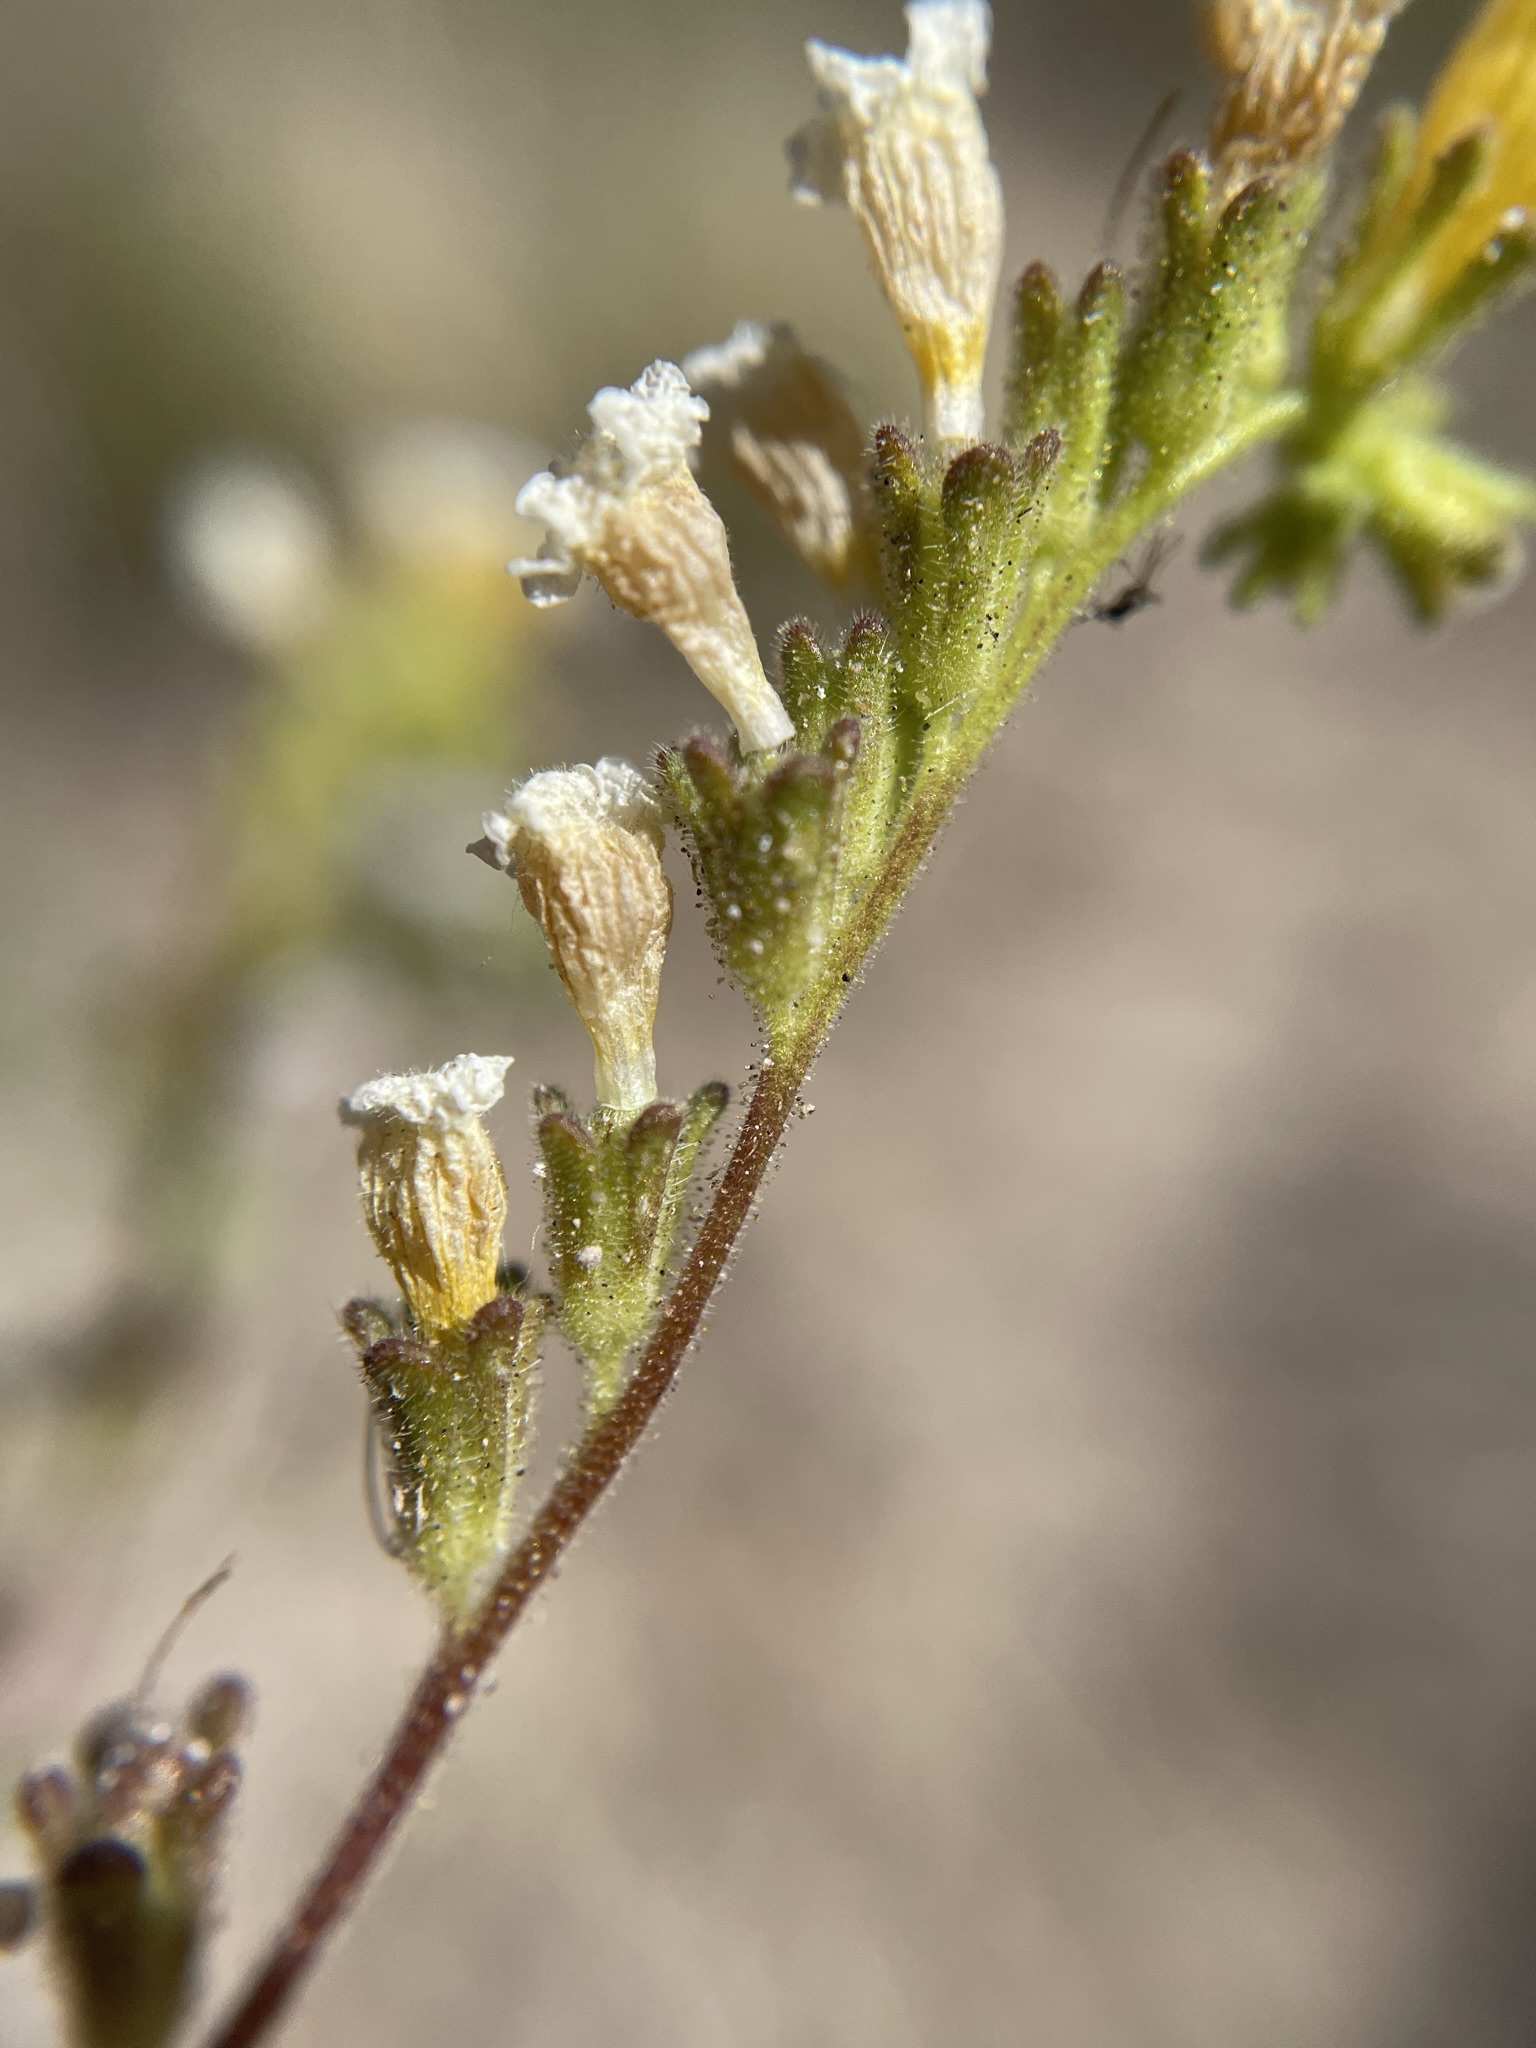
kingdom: Plantae
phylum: Tracheophyta
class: Magnoliopsida
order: Boraginales
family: Hydrophyllaceae
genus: Phacelia
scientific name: Phacelia fremontii
